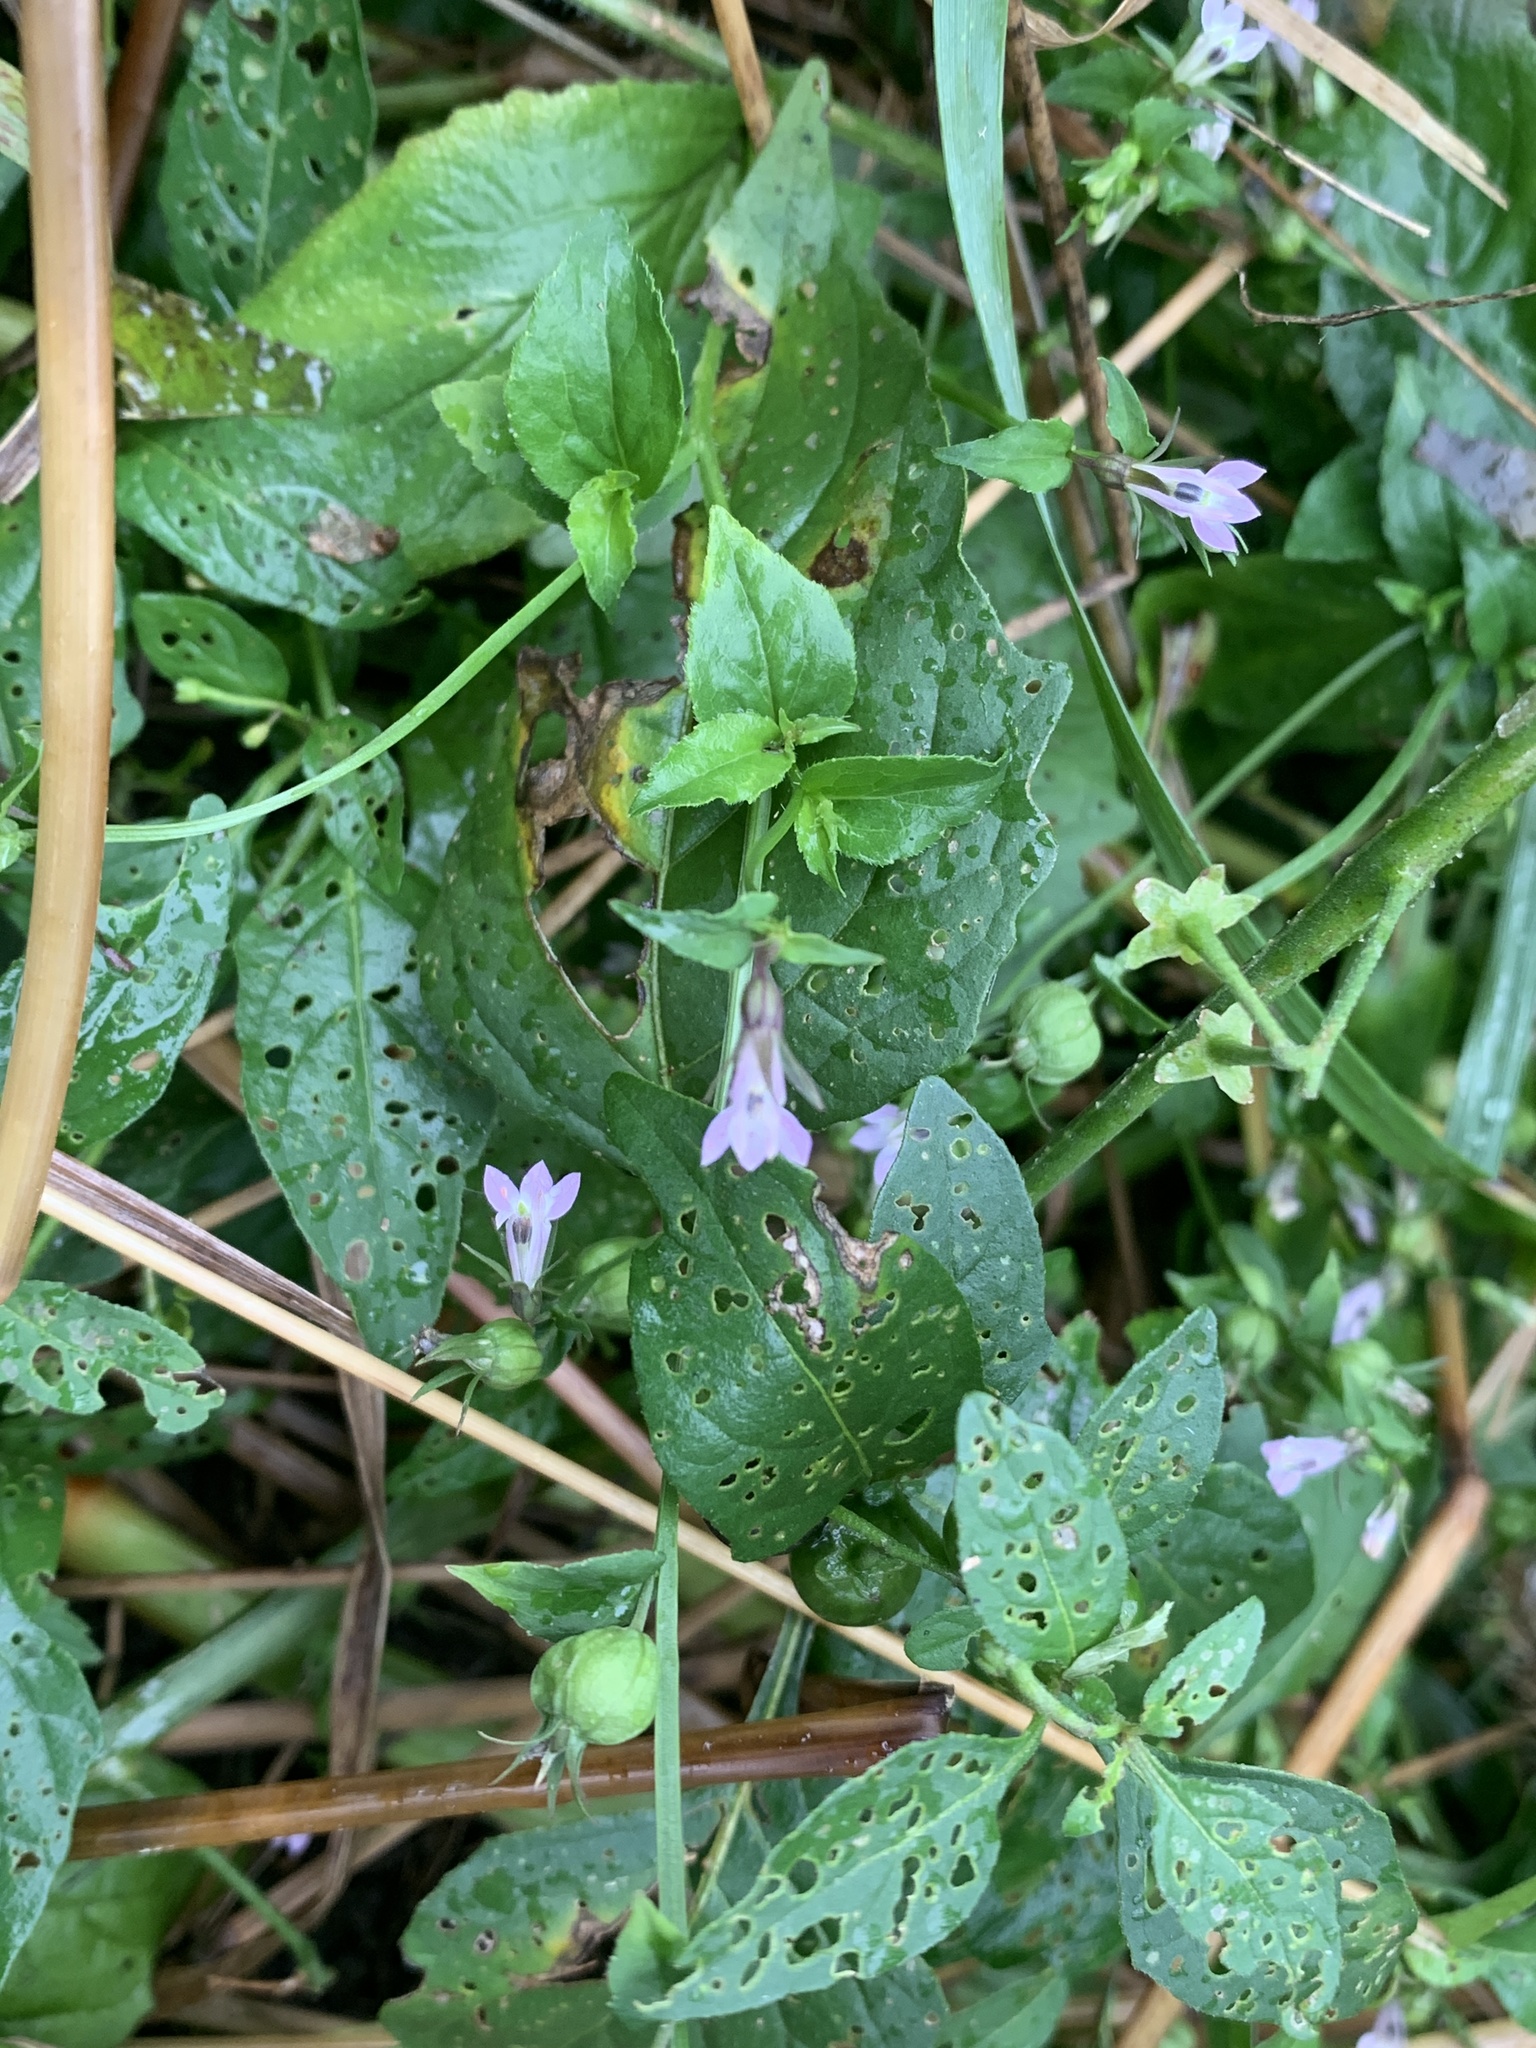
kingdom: Plantae
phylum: Tracheophyta
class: Magnoliopsida
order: Asterales
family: Campanulaceae
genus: Lobelia
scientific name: Lobelia inflata
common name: Indian tobacco
